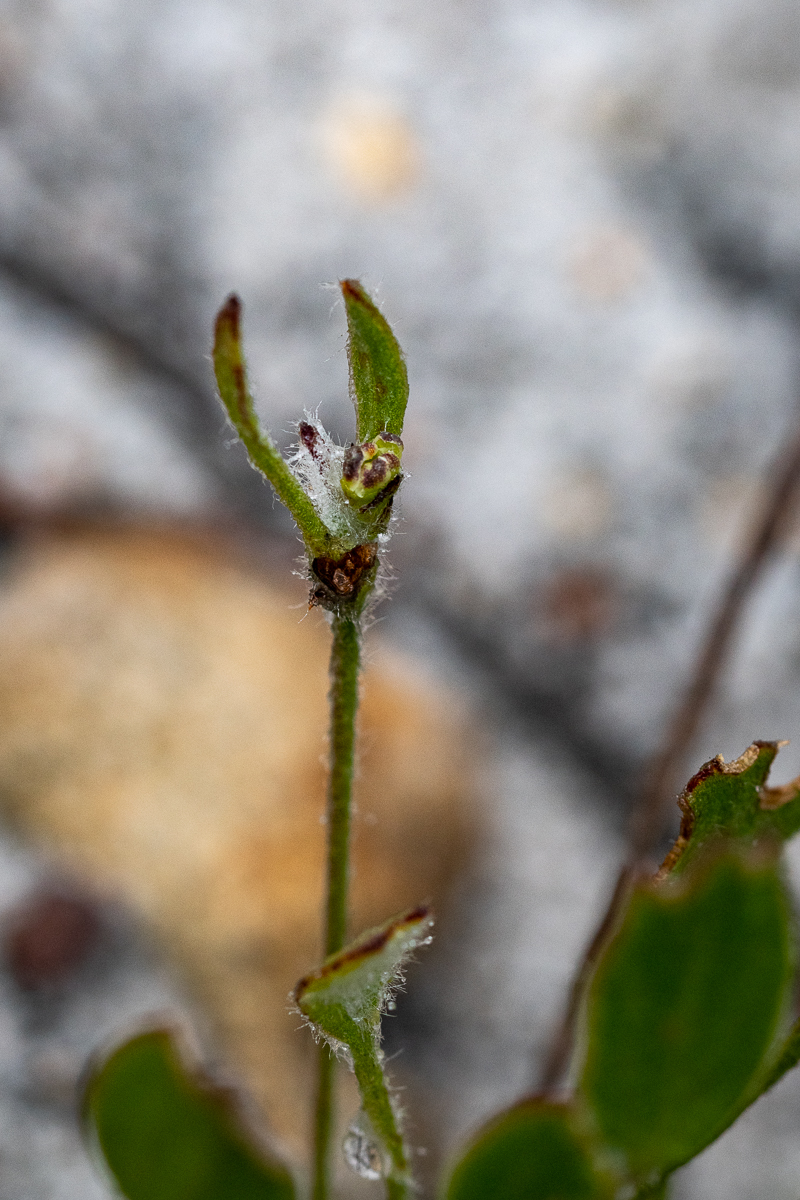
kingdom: Plantae
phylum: Tracheophyta
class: Magnoliopsida
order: Apiales
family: Apiaceae
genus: Centella
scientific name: Centella difformis
